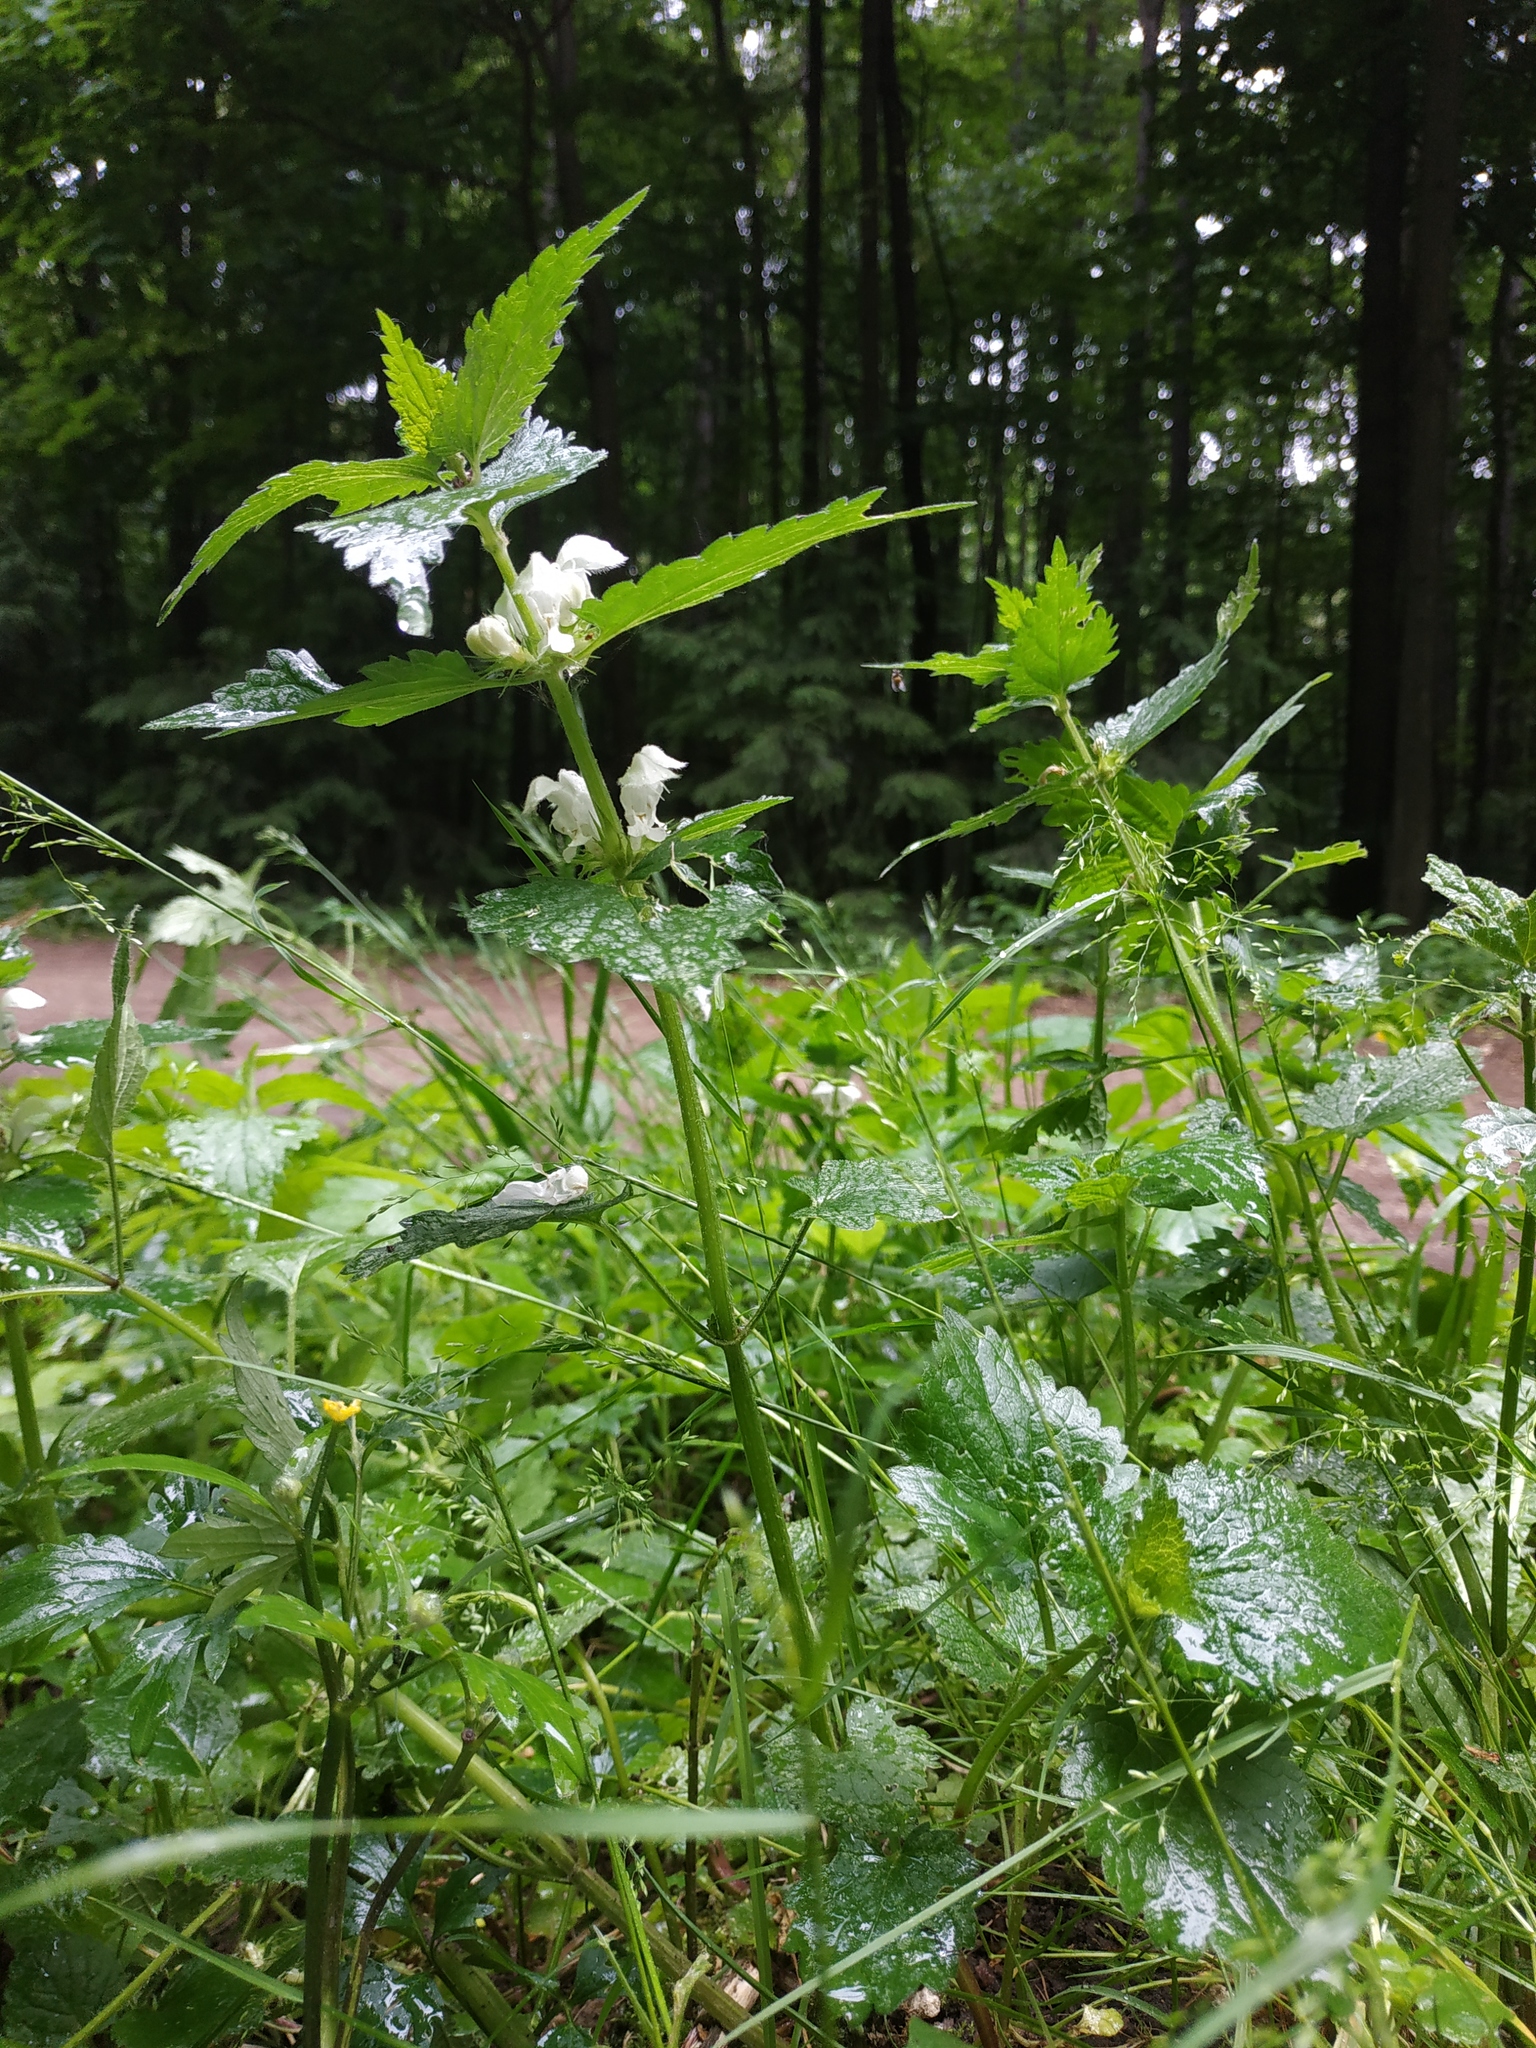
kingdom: Plantae
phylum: Tracheophyta
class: Magnoliopsida
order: Lamiales
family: Lamiaceae
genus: Lamium
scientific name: Lamium album
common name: White dead-nettle
